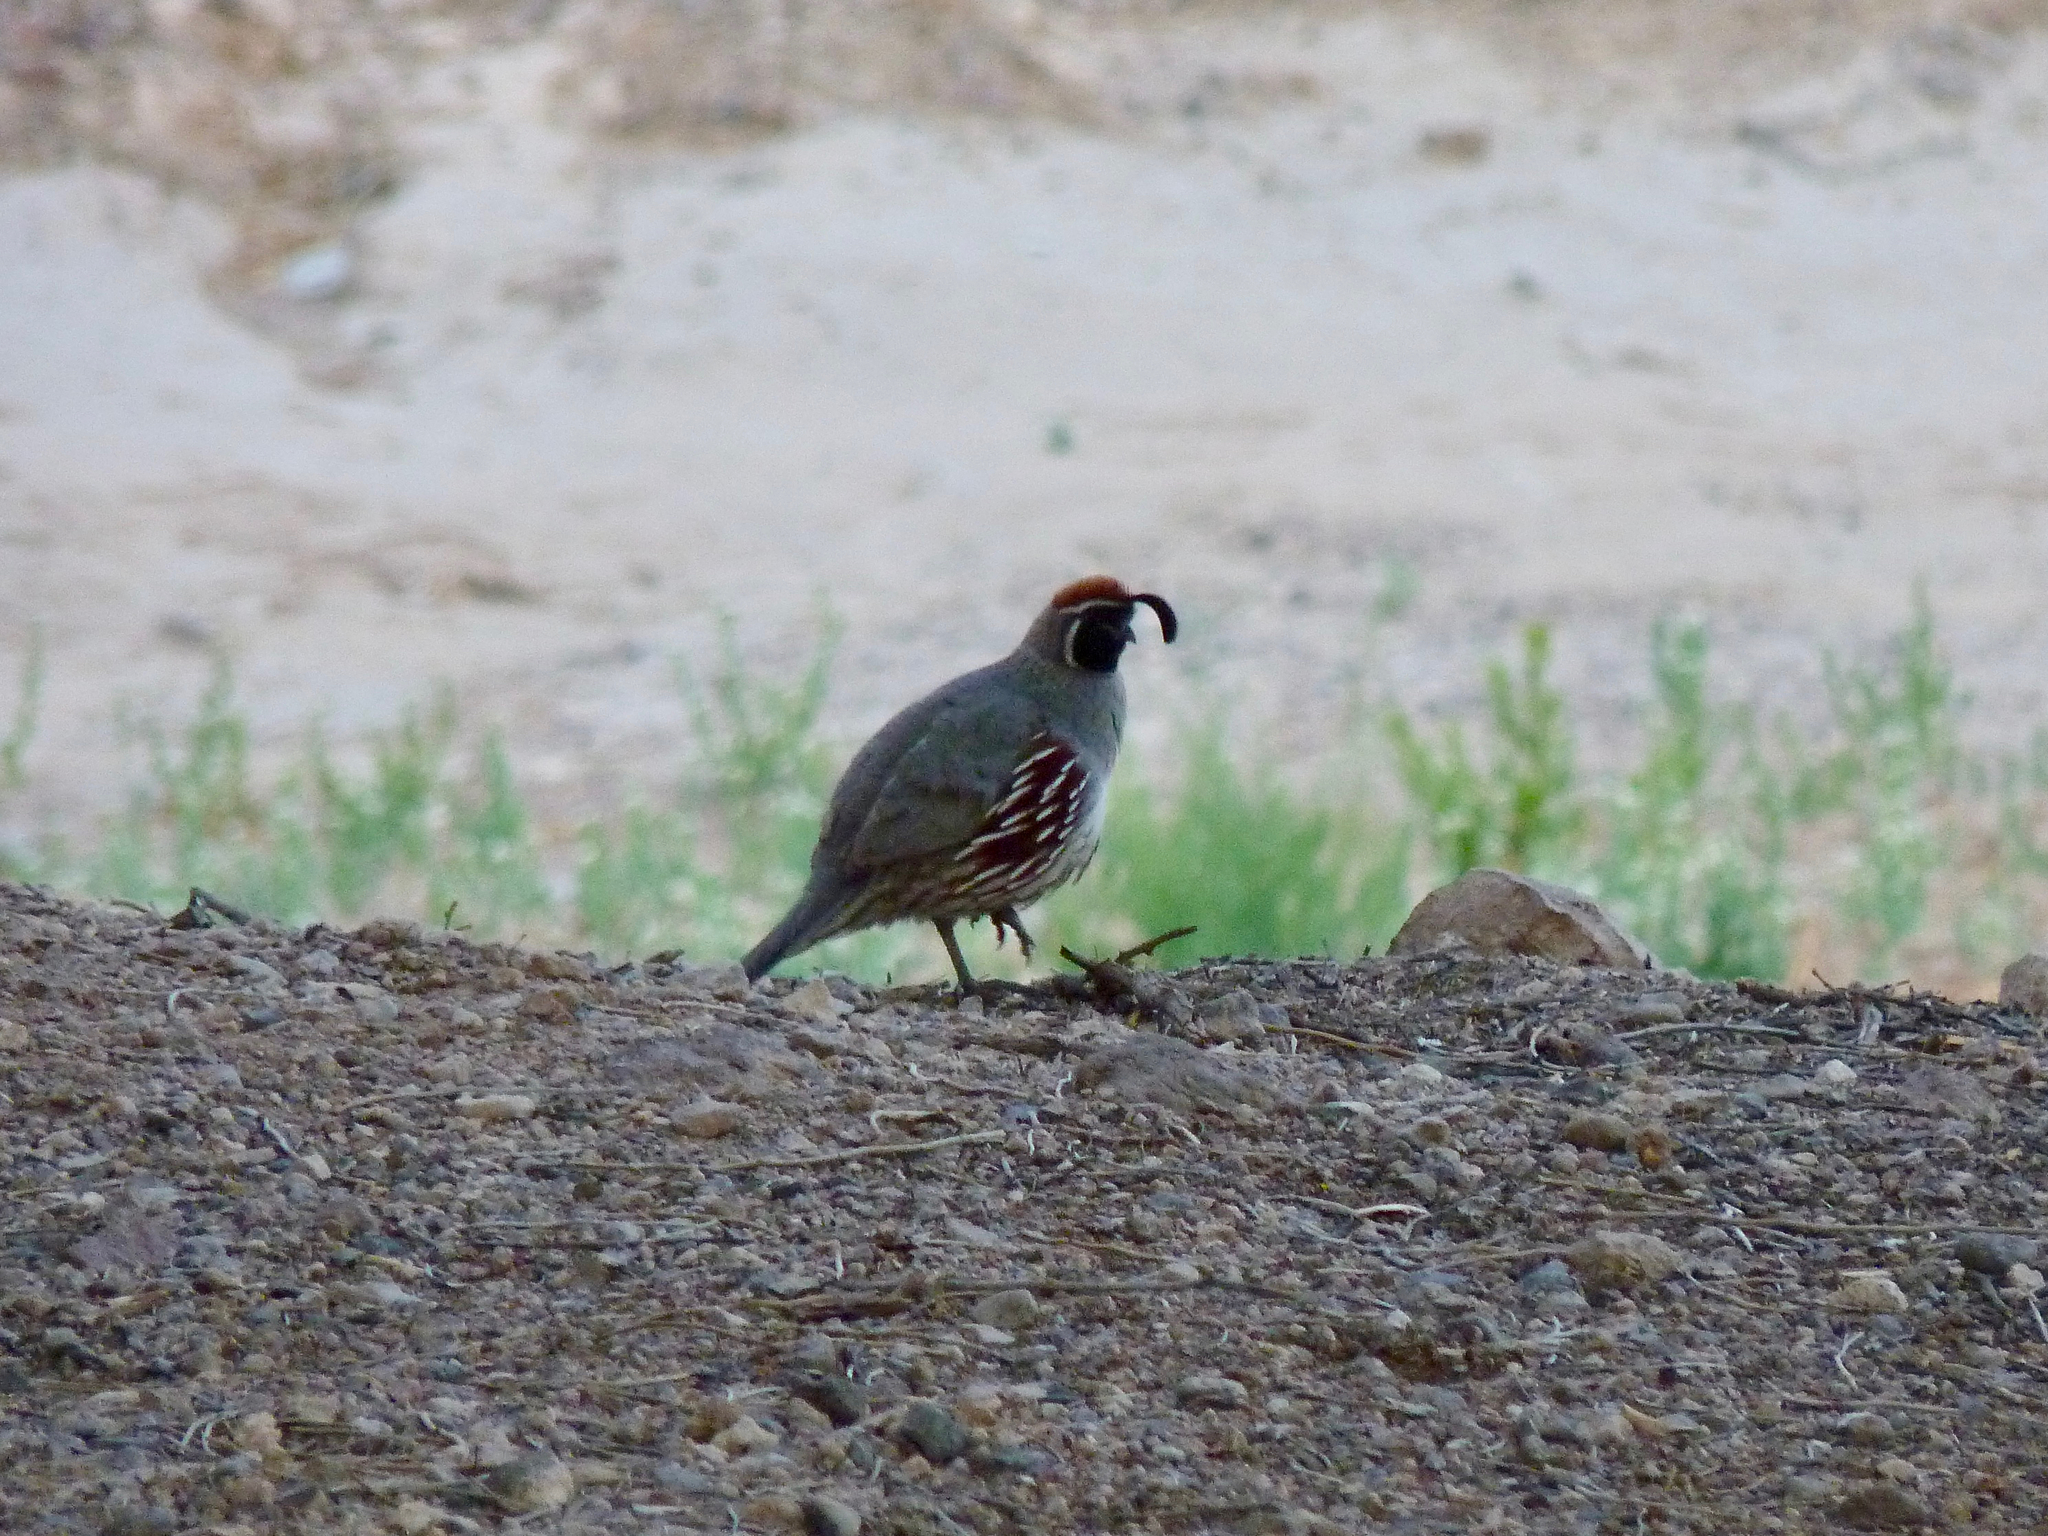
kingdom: Animalia
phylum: Chordata
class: Aves
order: Galliformes
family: Odontophoridae
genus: Callipepla
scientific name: Callipepla gambelii
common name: Gambel's quail
